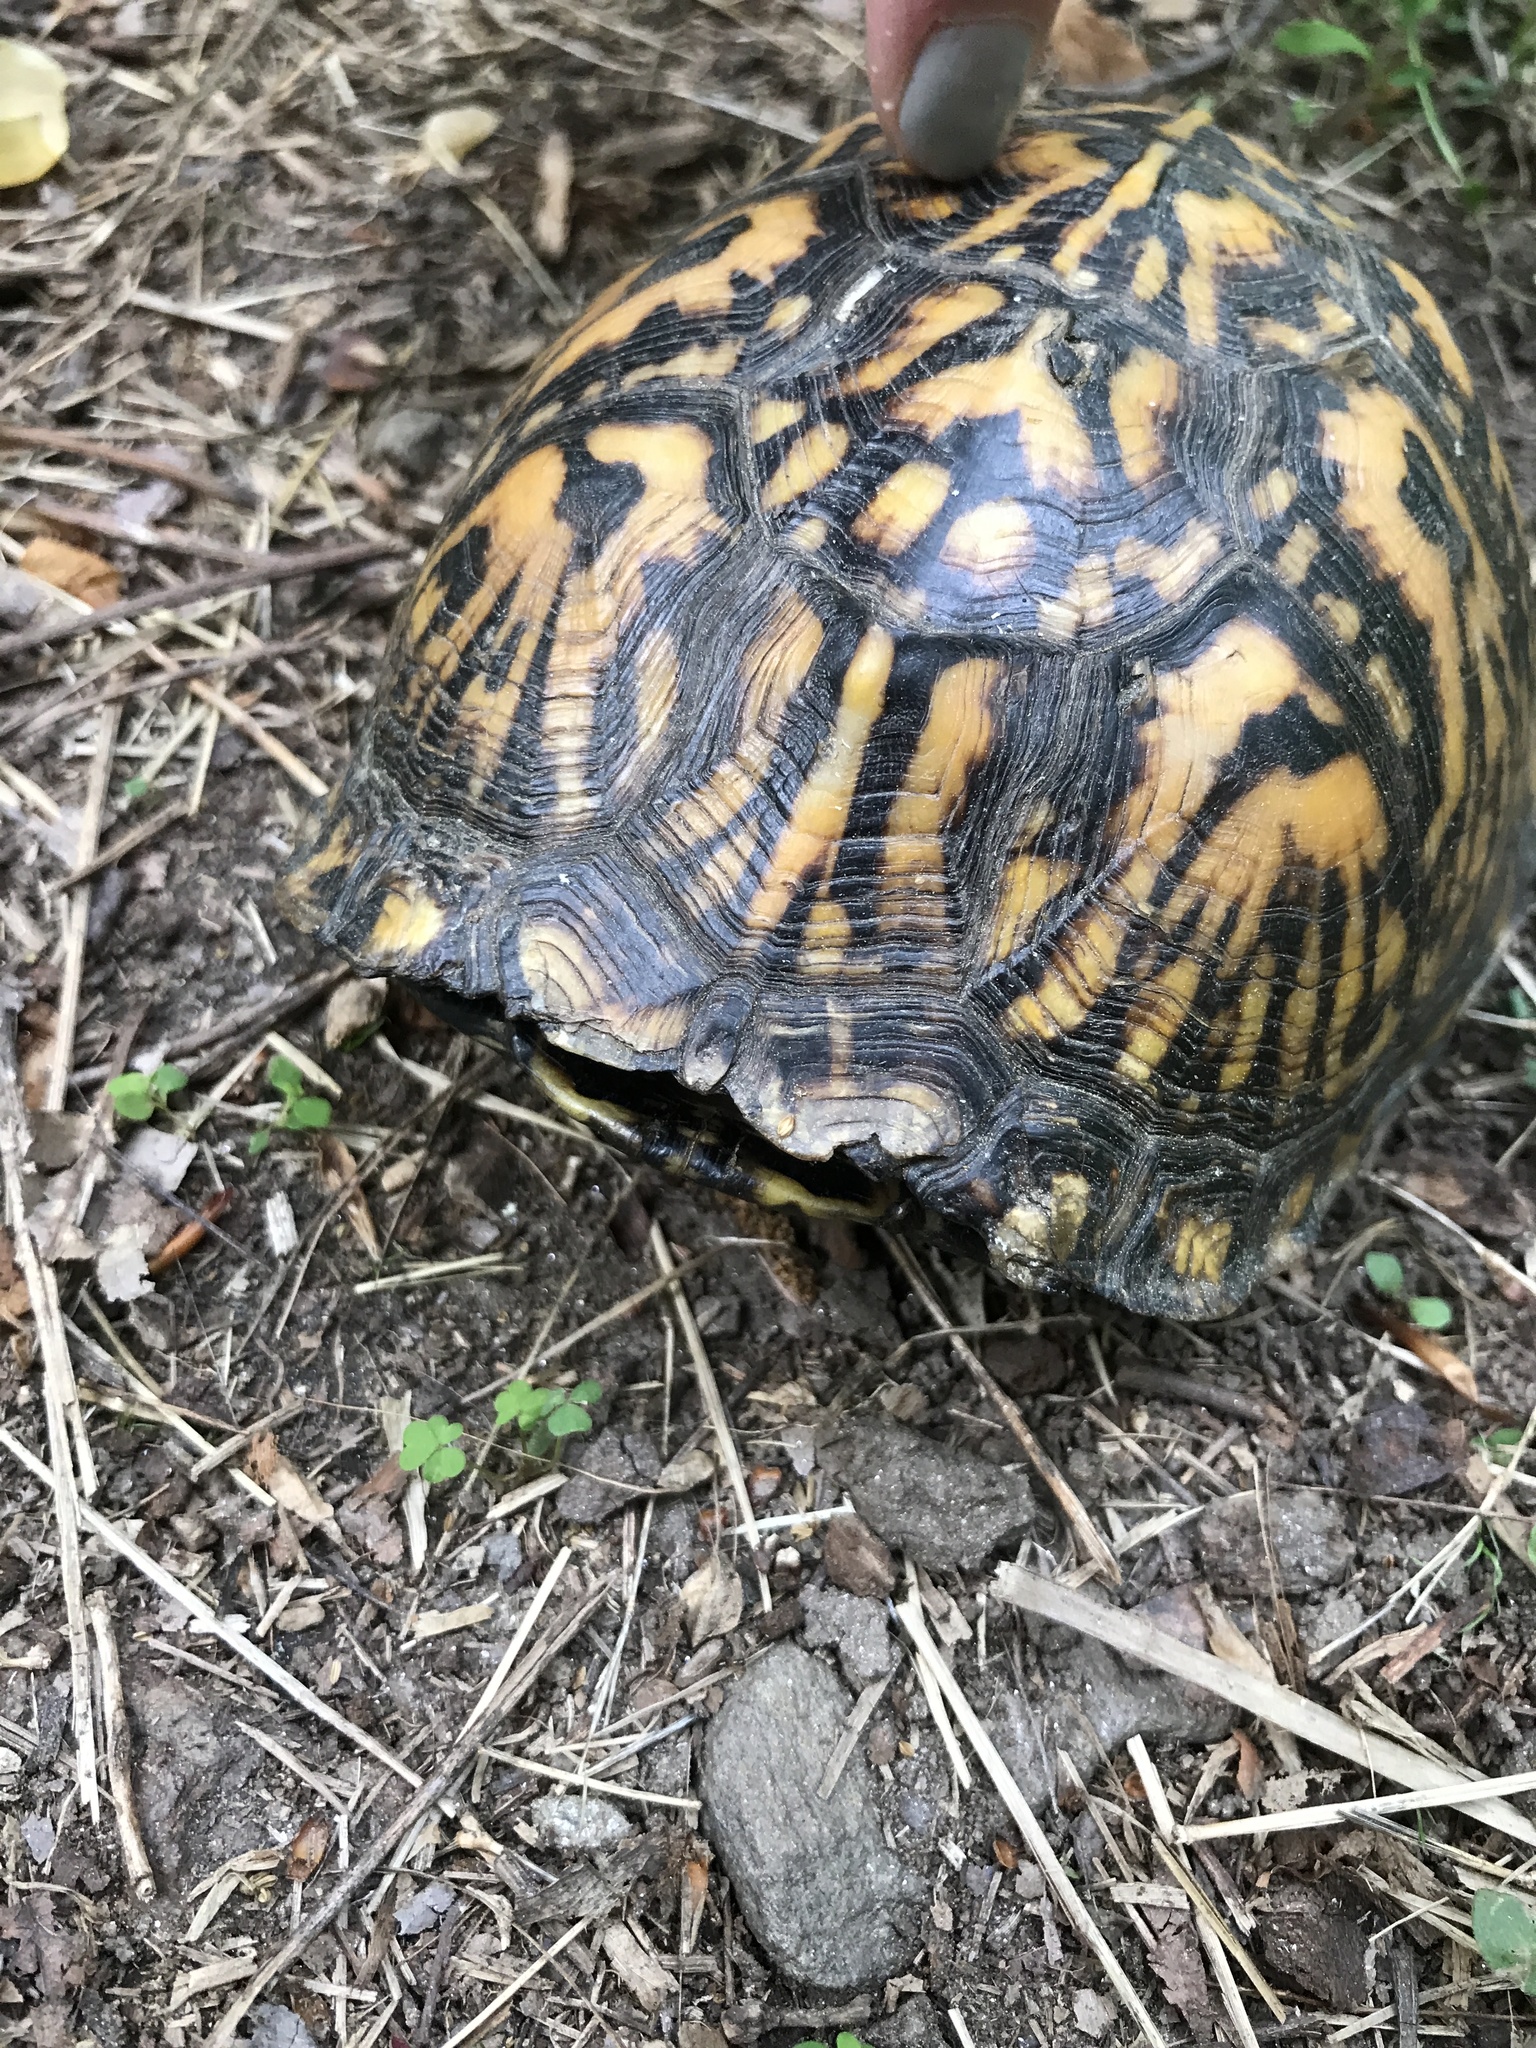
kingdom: Animalia
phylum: Chordata
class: Testudines
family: Emydidae
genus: Terrapene
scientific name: Terrapene carolina
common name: Common box turtle
